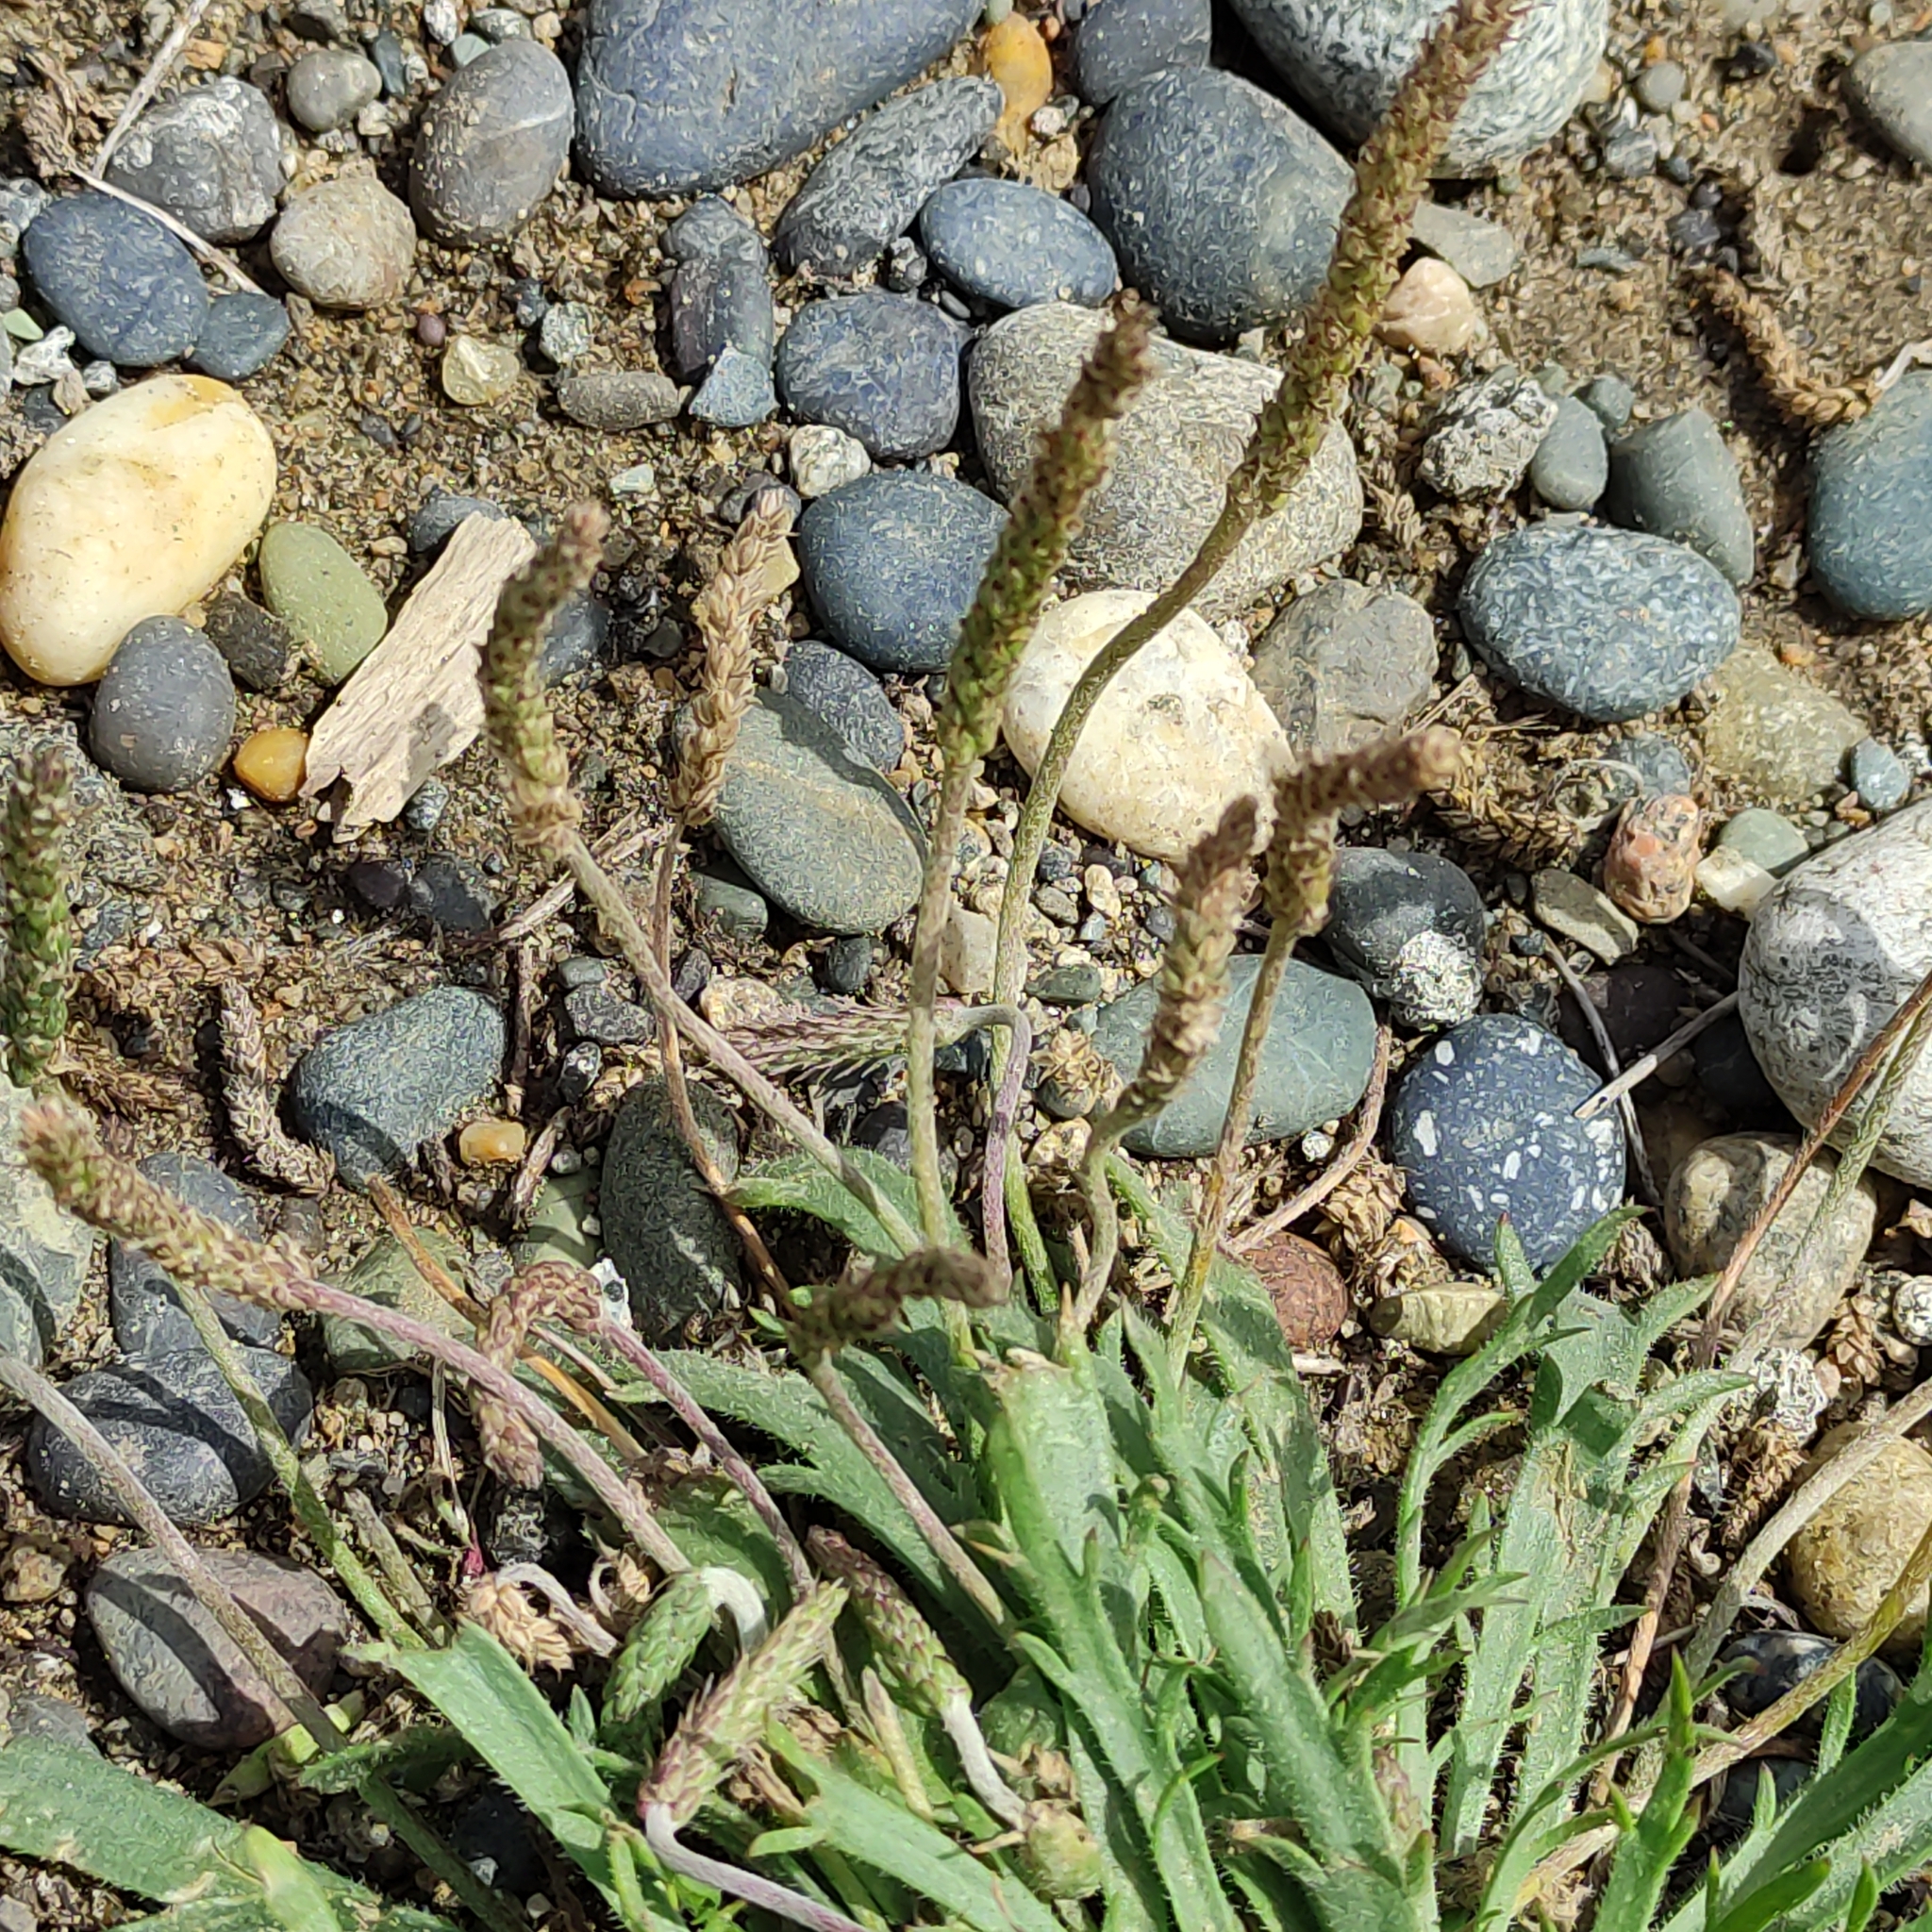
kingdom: Plantae
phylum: Tracheophyta
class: Magnoliopsida
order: Lamiales
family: Plantaginaceae
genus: Plantago
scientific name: Plantago coronopus
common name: Buck's-horn plantain
